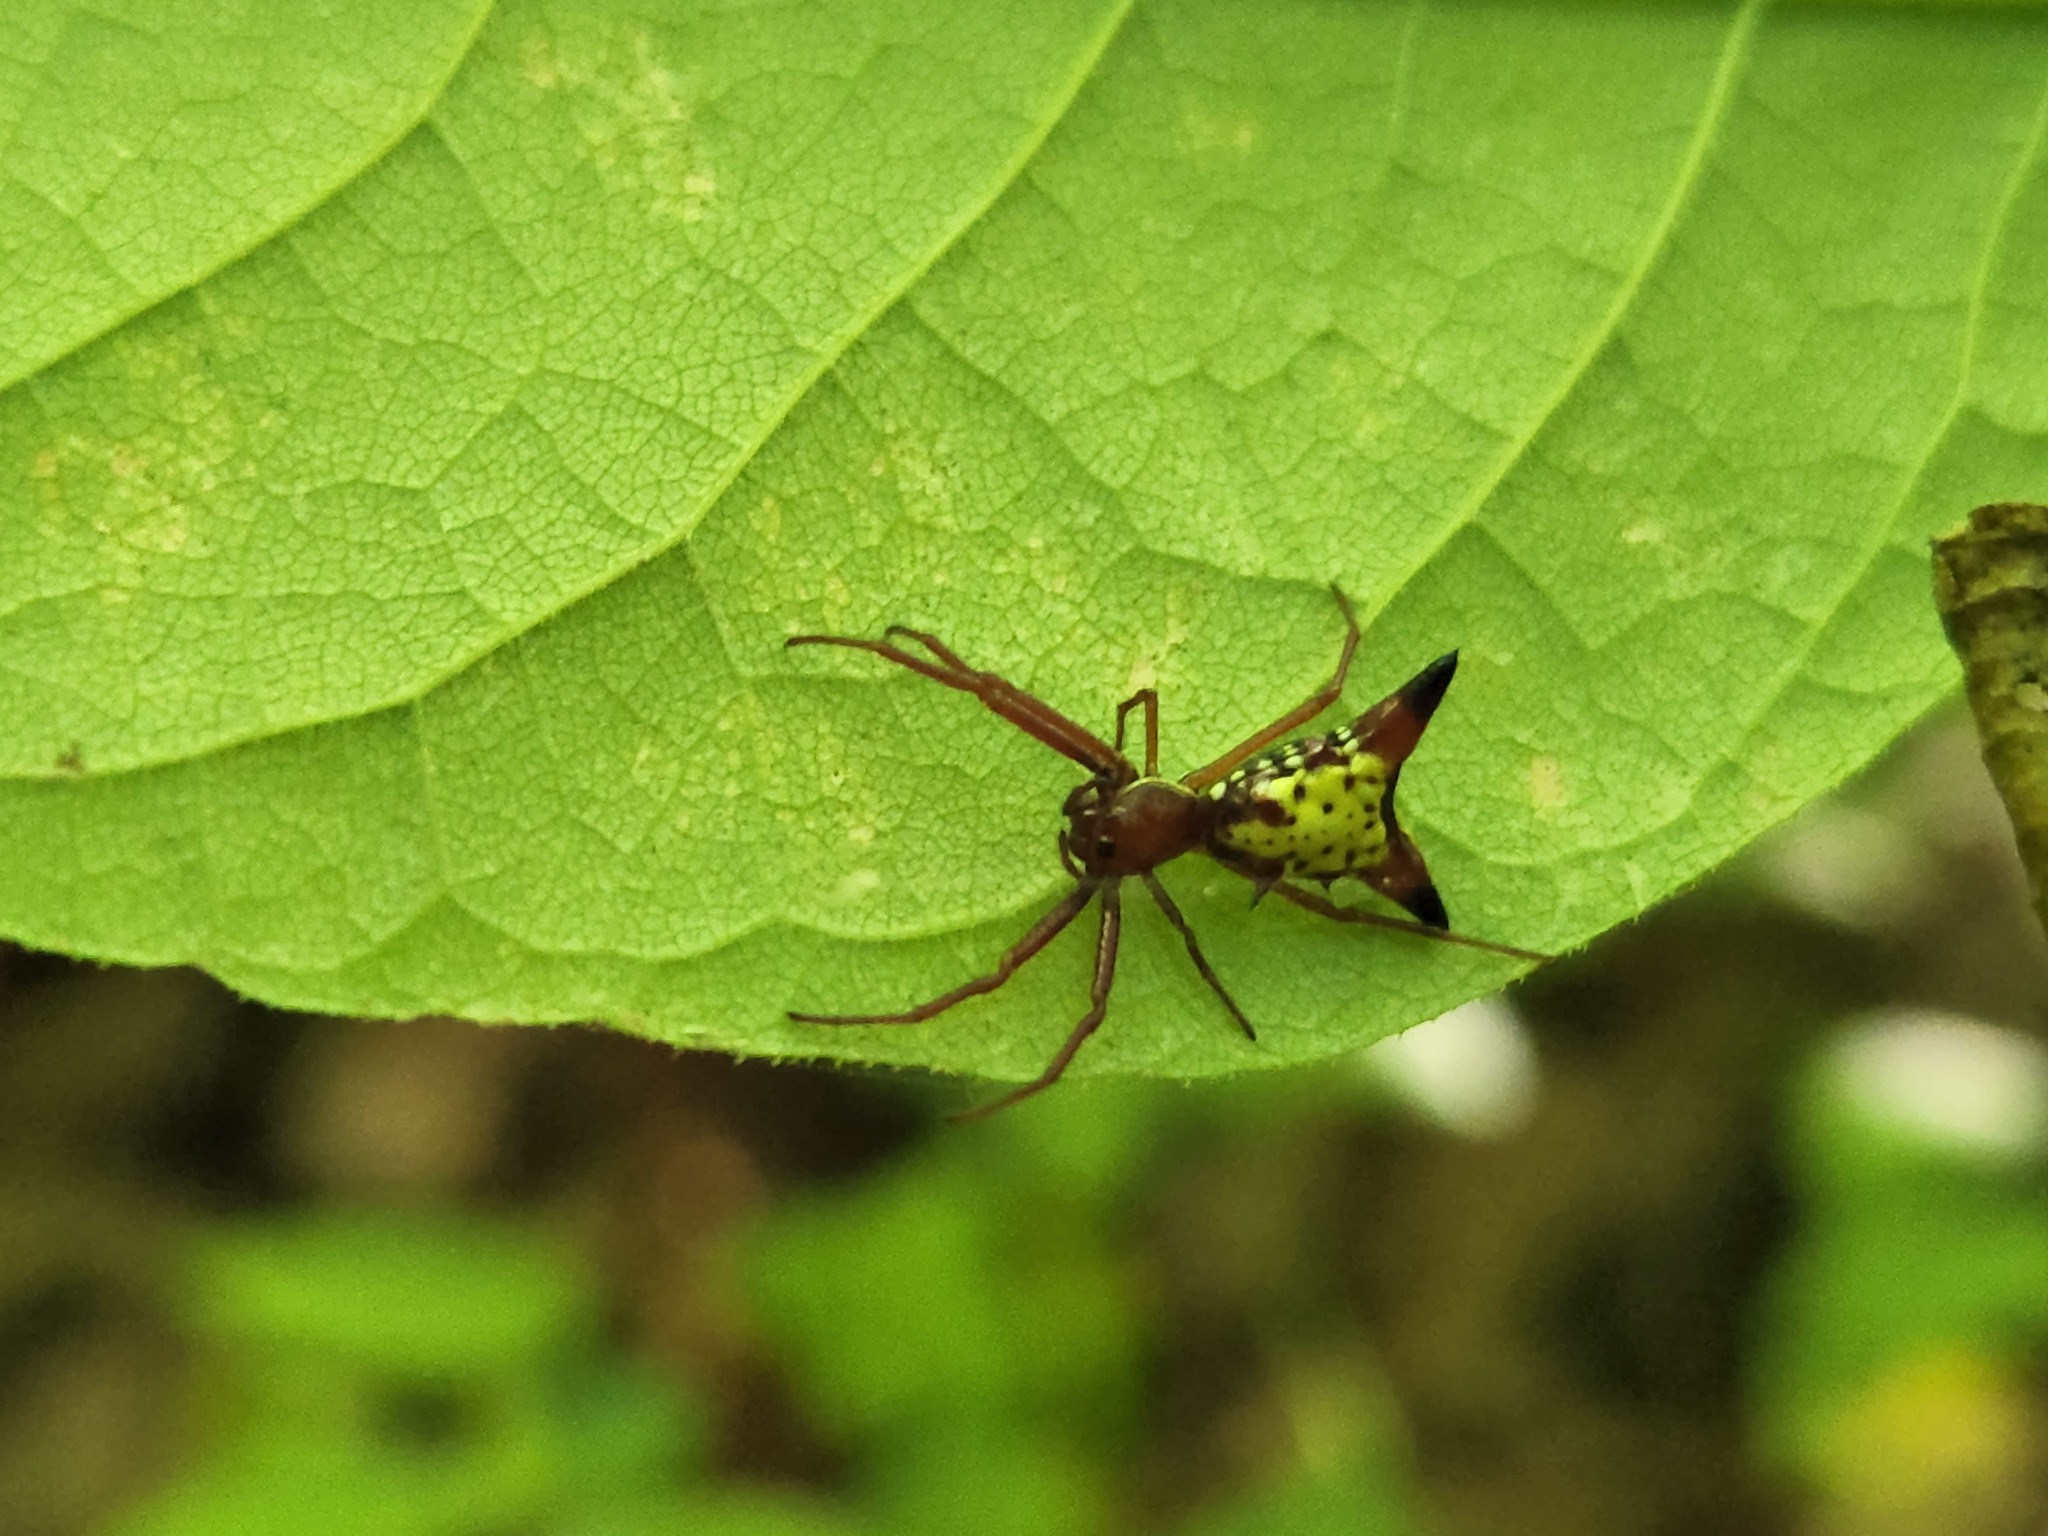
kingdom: Animalia
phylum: Arthropoda
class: Arachnida
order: Araneae
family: Araneidae
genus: Micrathena
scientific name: Micrathena sagittata
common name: Orb weavers
